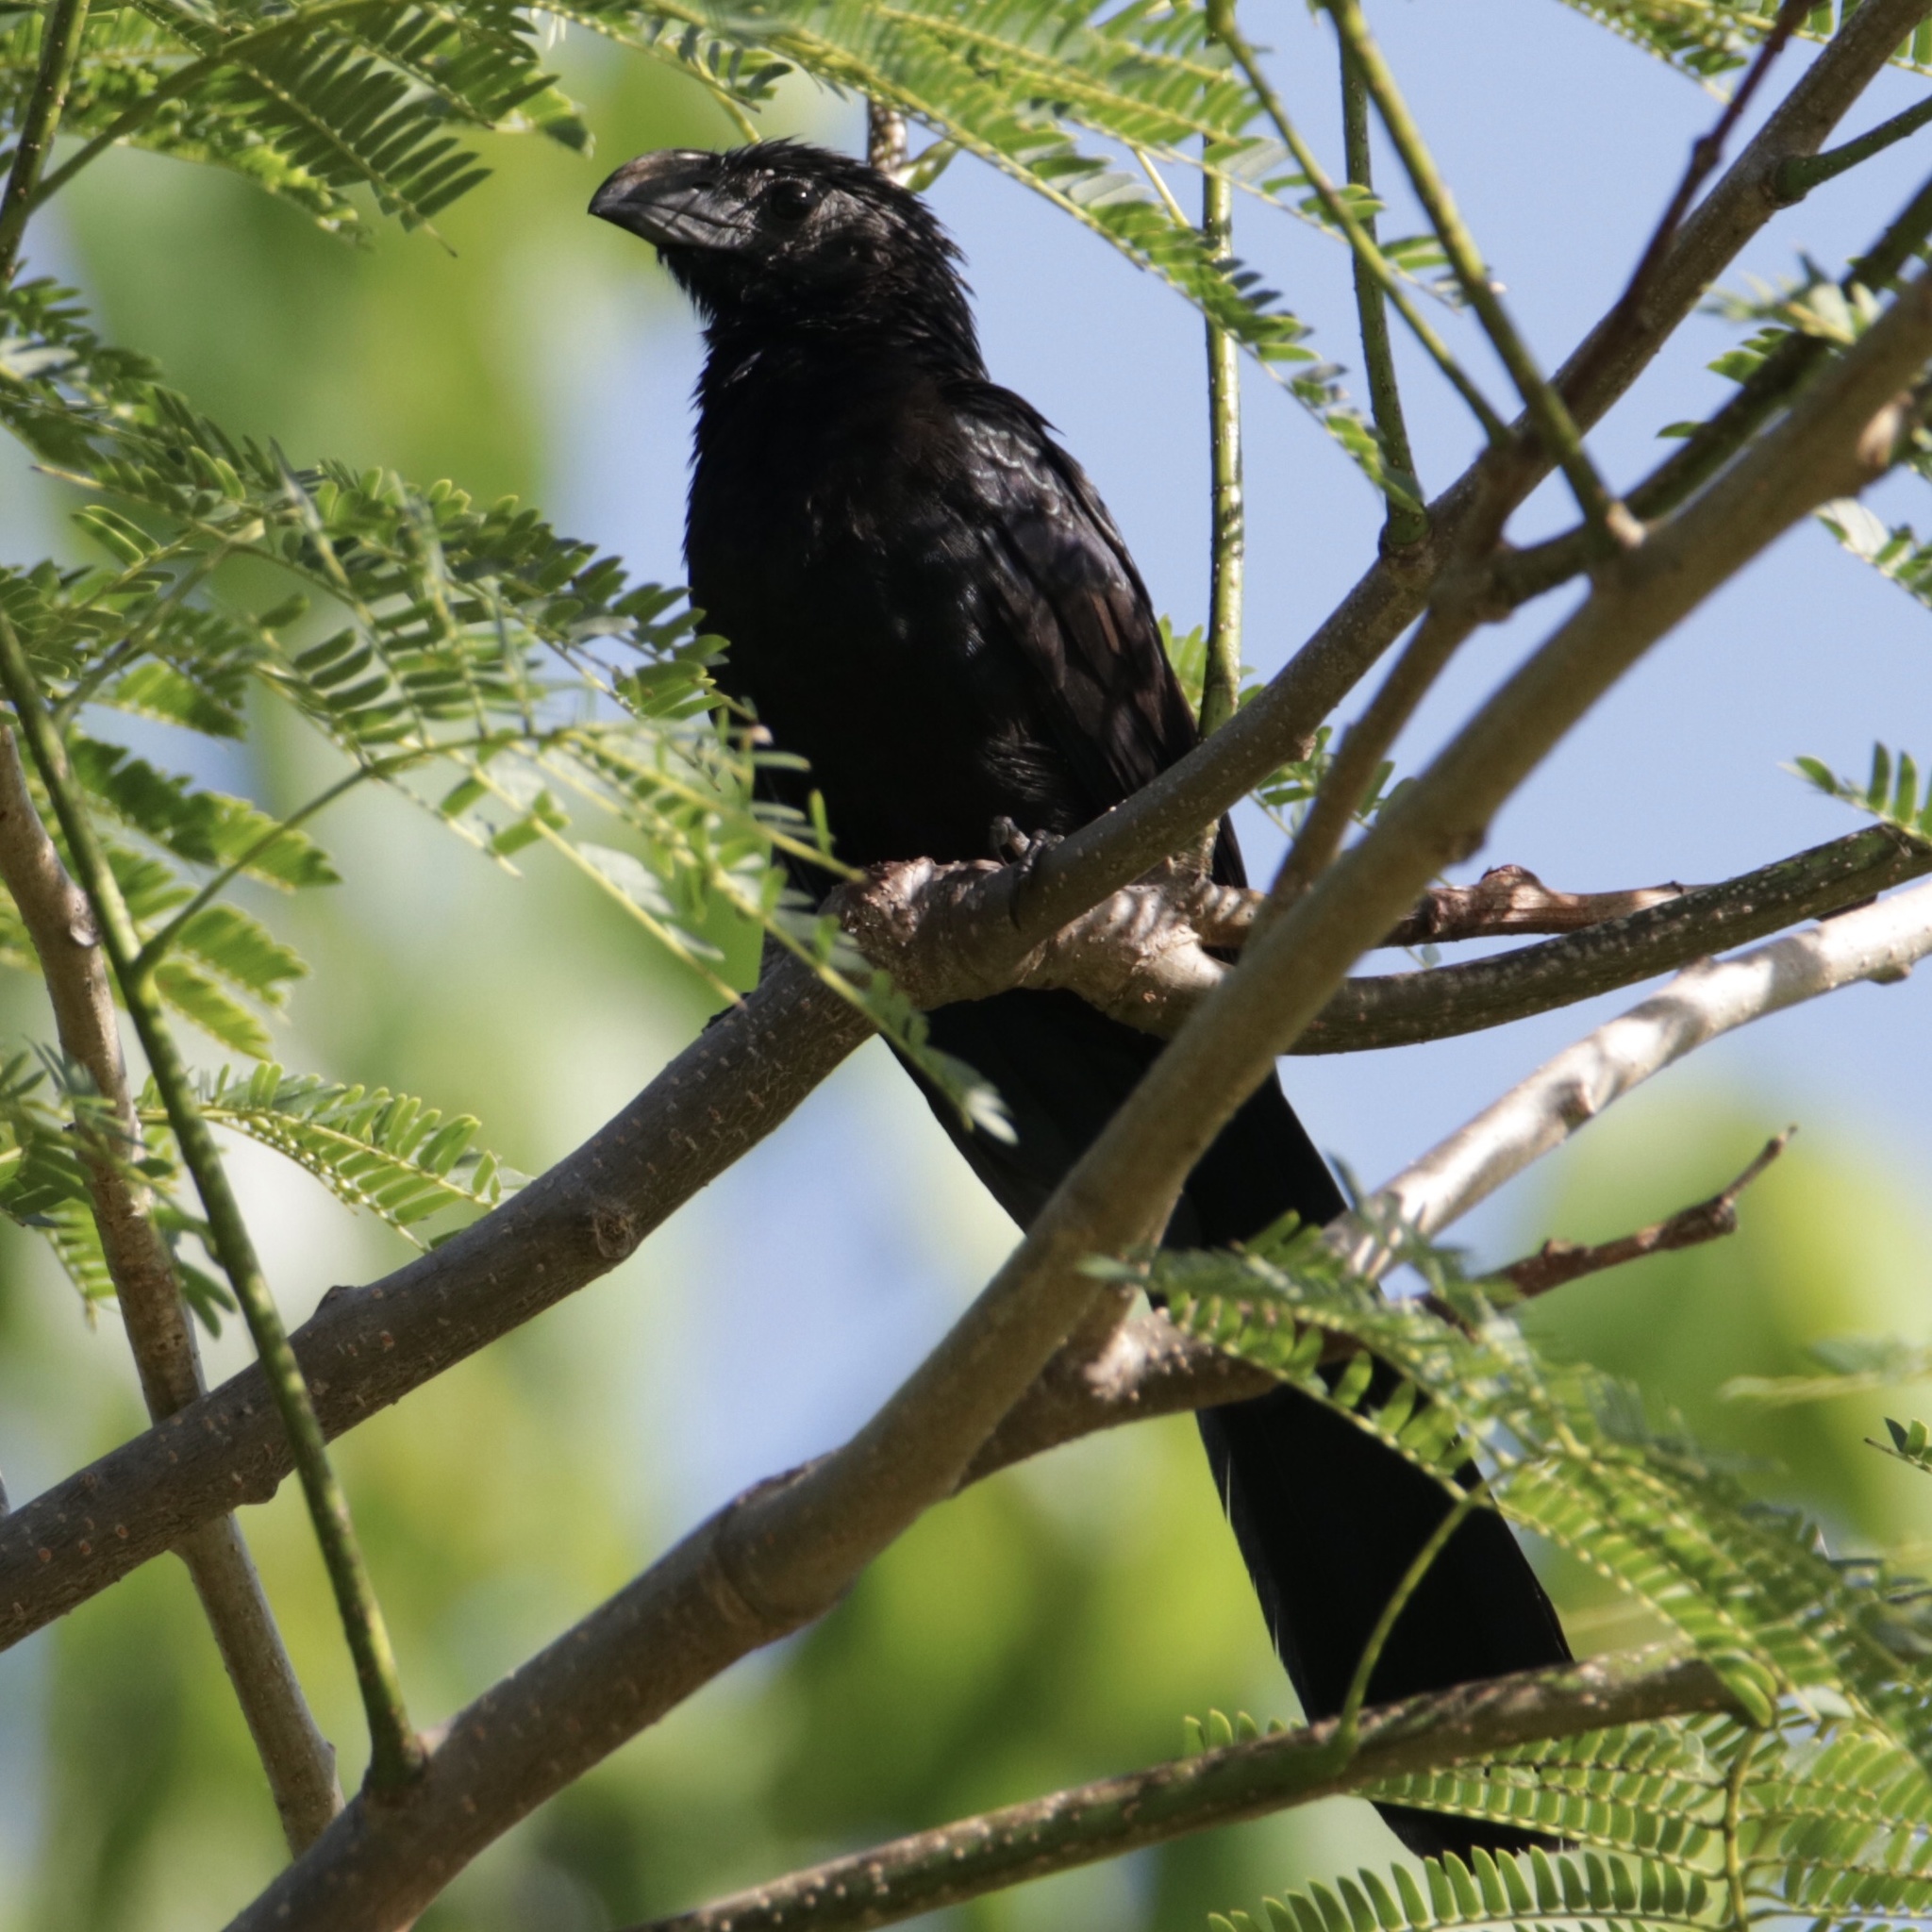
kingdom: Animalia
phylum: Chordata
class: Aves
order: Cuculiformes
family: Cuculidae
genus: Crotophaga
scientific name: Crotophaga sulcirostris
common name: Groove-billed ani
